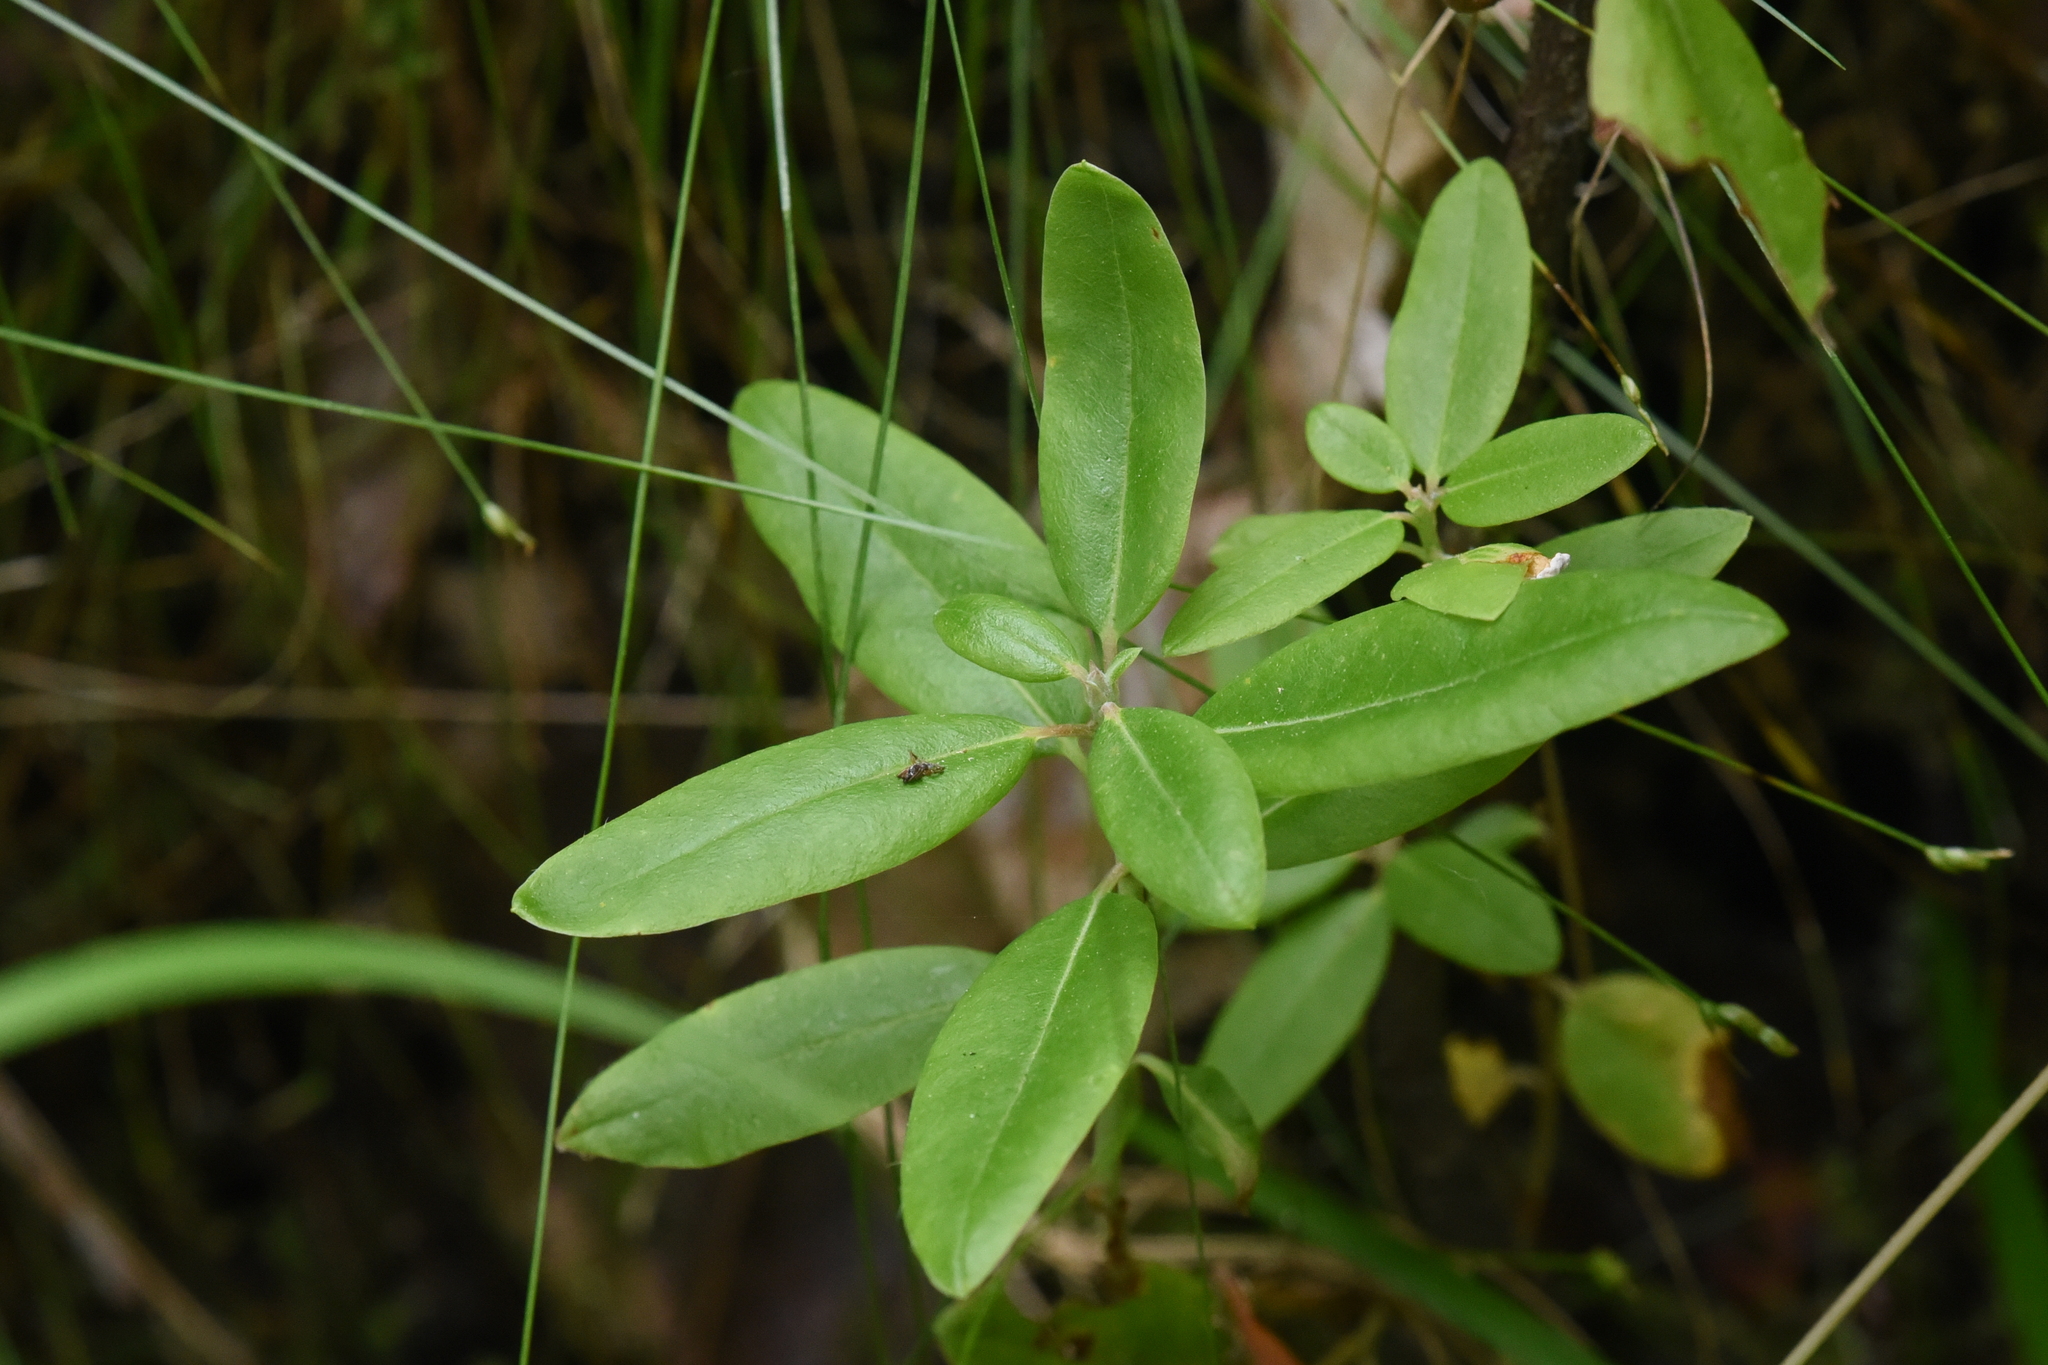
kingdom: Plantae
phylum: Tracheophyta
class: Magnoliopsida
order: Ericales
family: Ericaceae
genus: Rhododendron
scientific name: Rhododendron columbianum
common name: Western labrador tea
